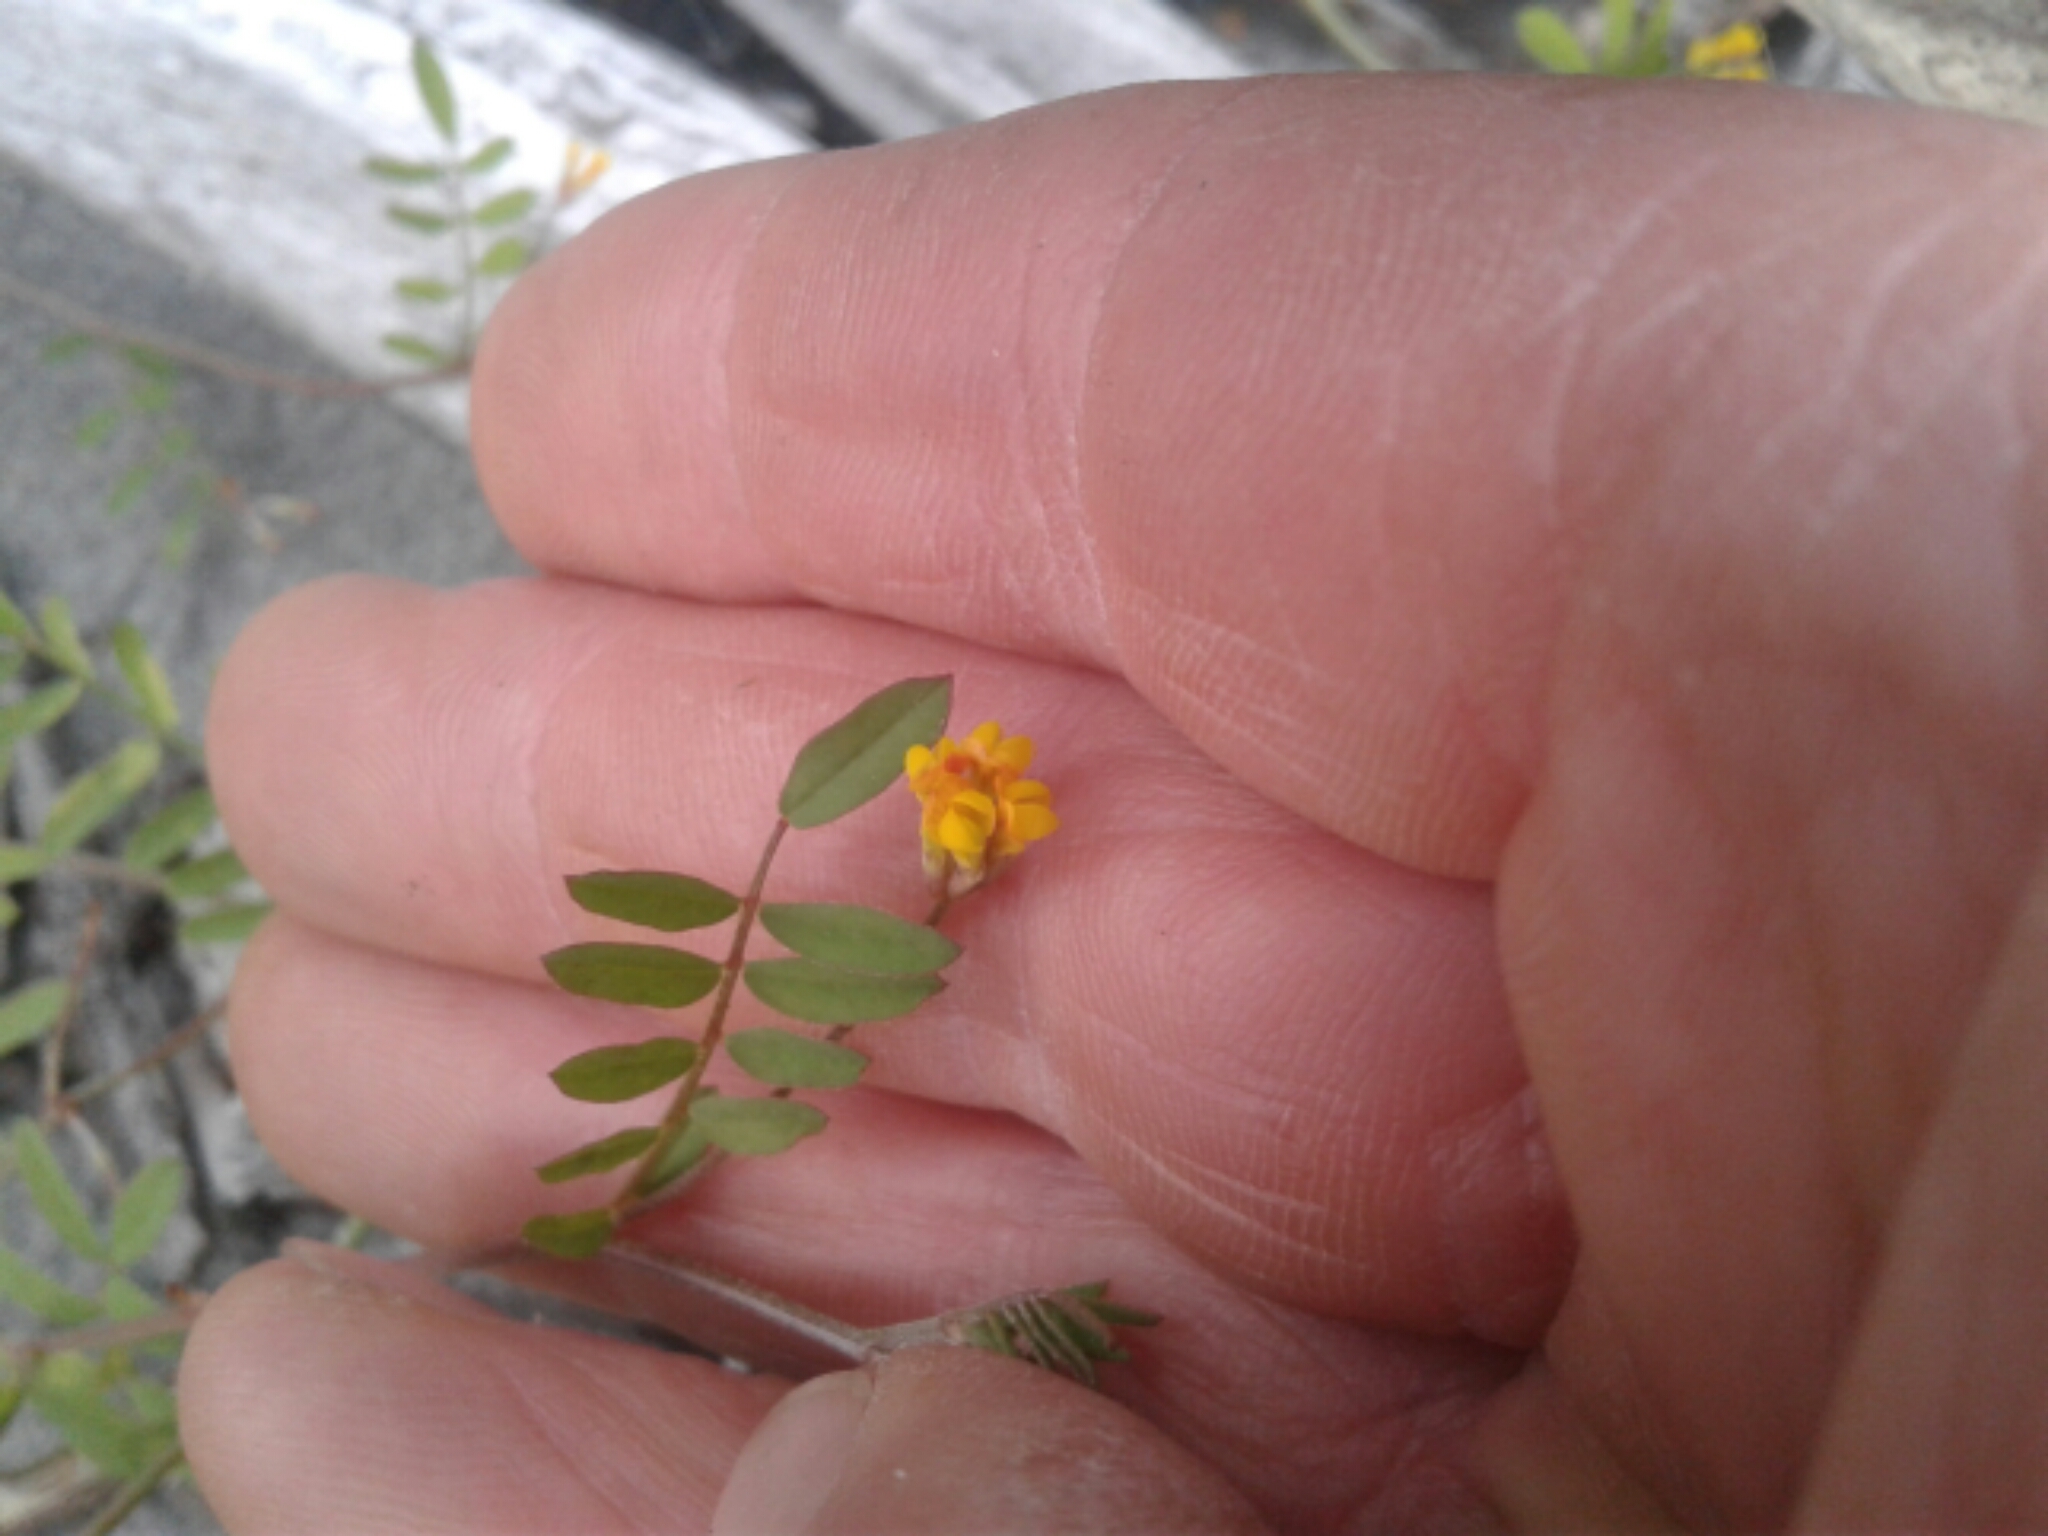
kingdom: Plantae
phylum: Tracheophyta
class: Magnoliopsida
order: Fabales
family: Fabaceae
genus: Ornithopus
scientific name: Ornithopus pinnatus
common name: Orange bird's-foot
